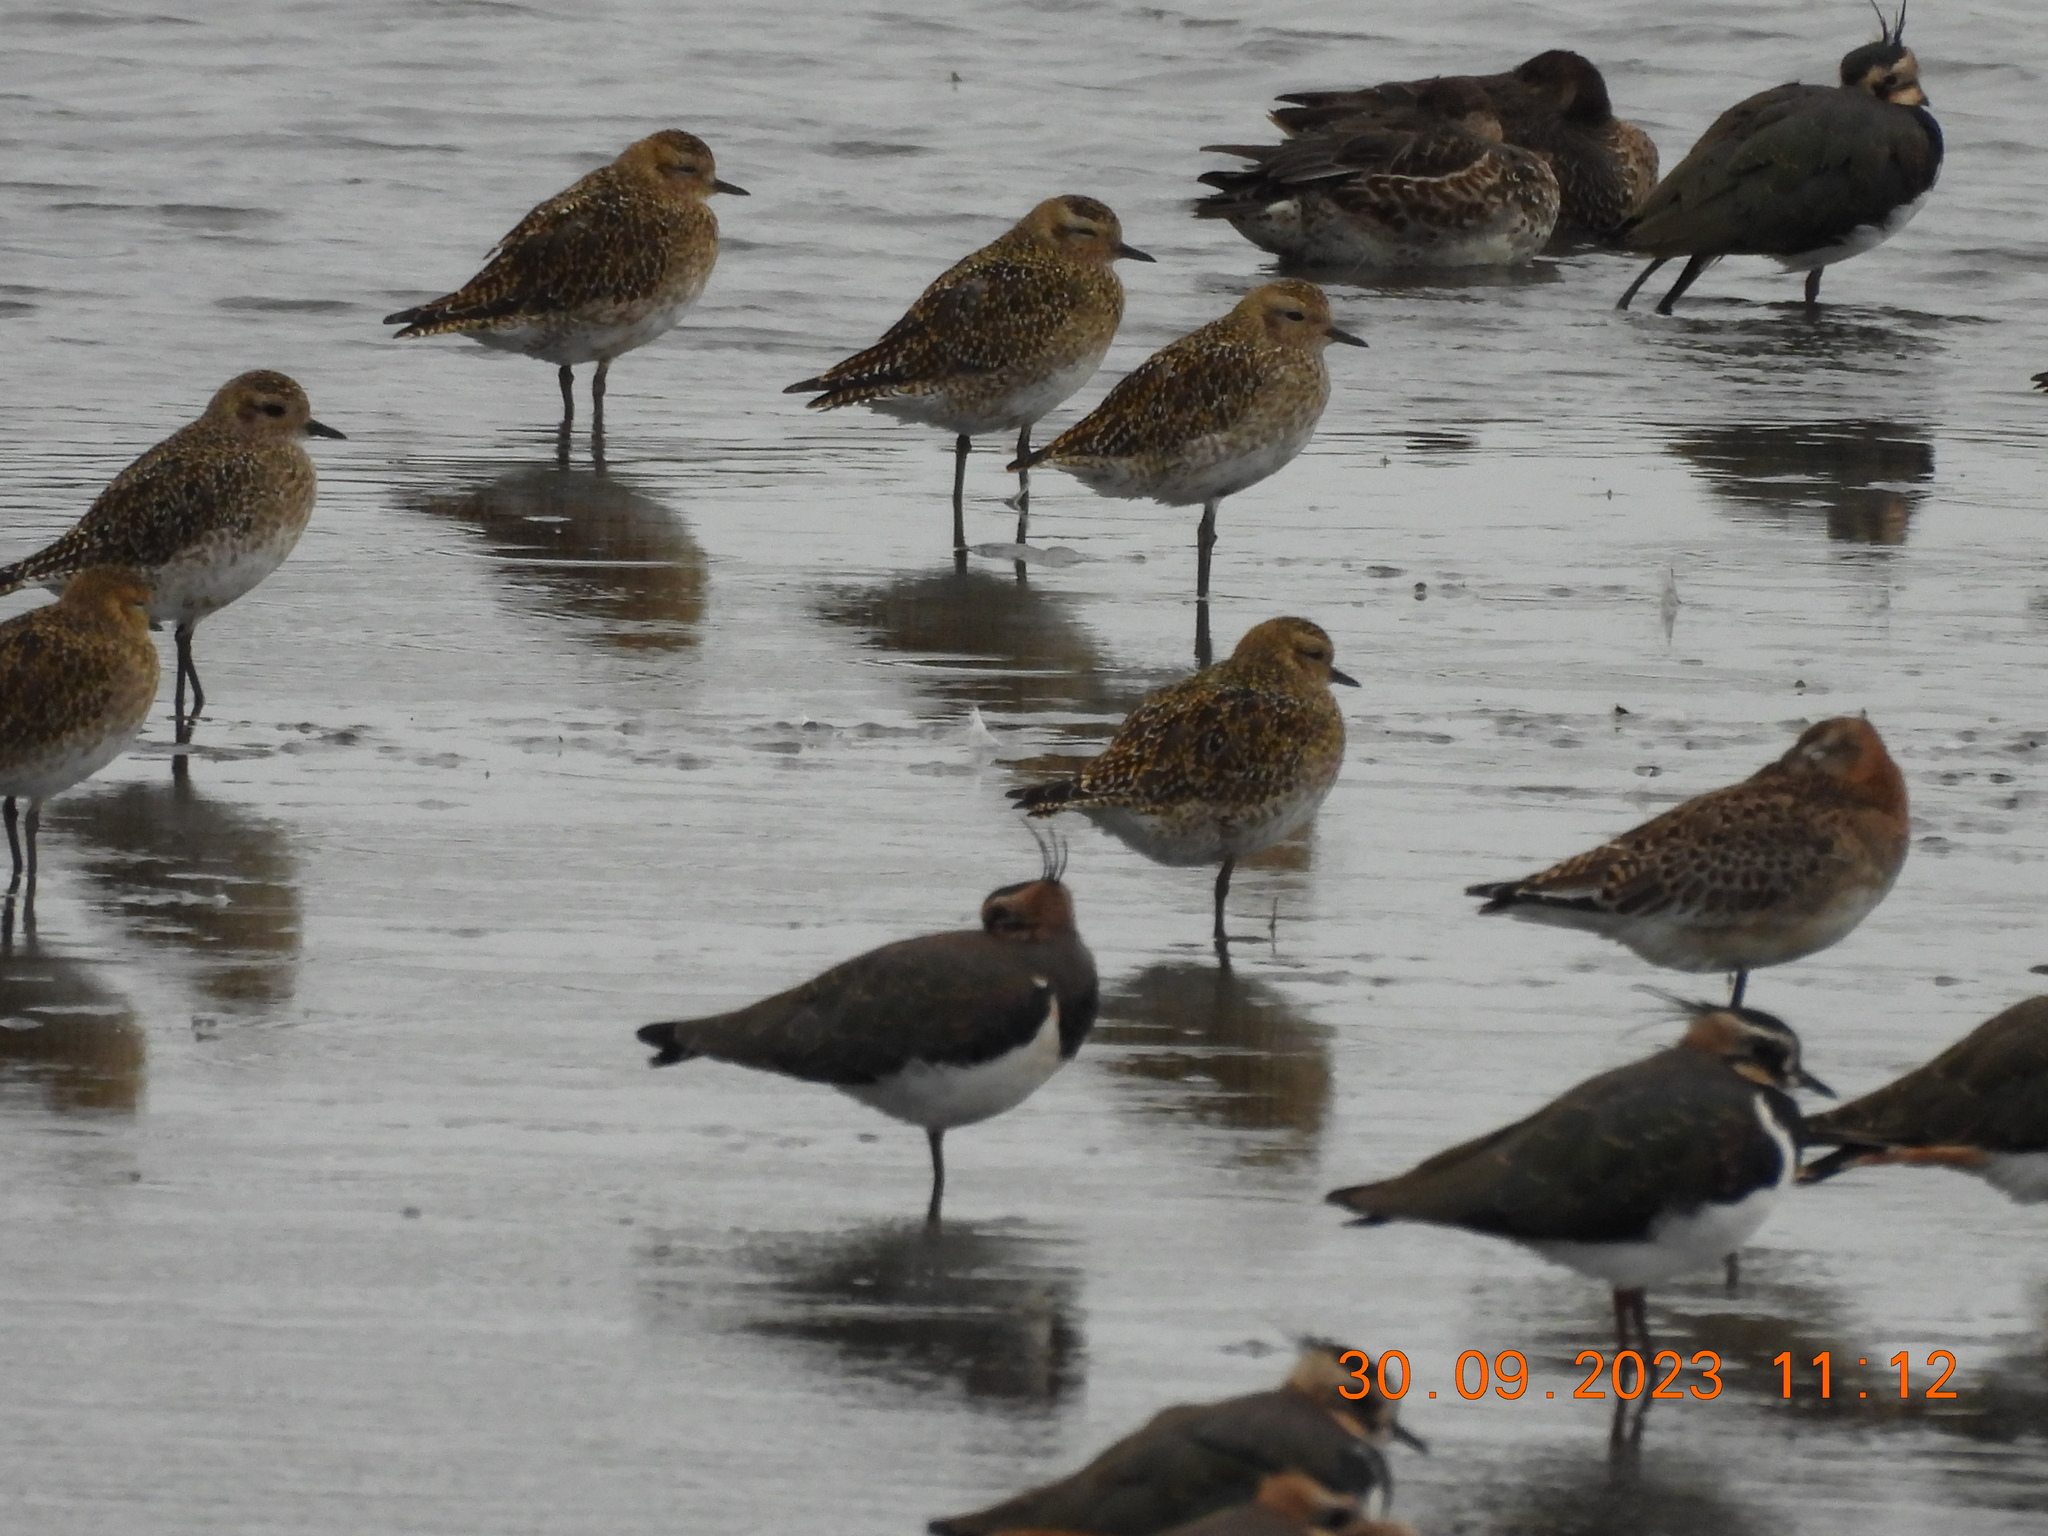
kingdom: Animalia
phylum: Chordata
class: Aves
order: Charadriiformes
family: Charadriidae
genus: Pluvialis
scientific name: Pluvialis apricaria
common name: European golden plover
